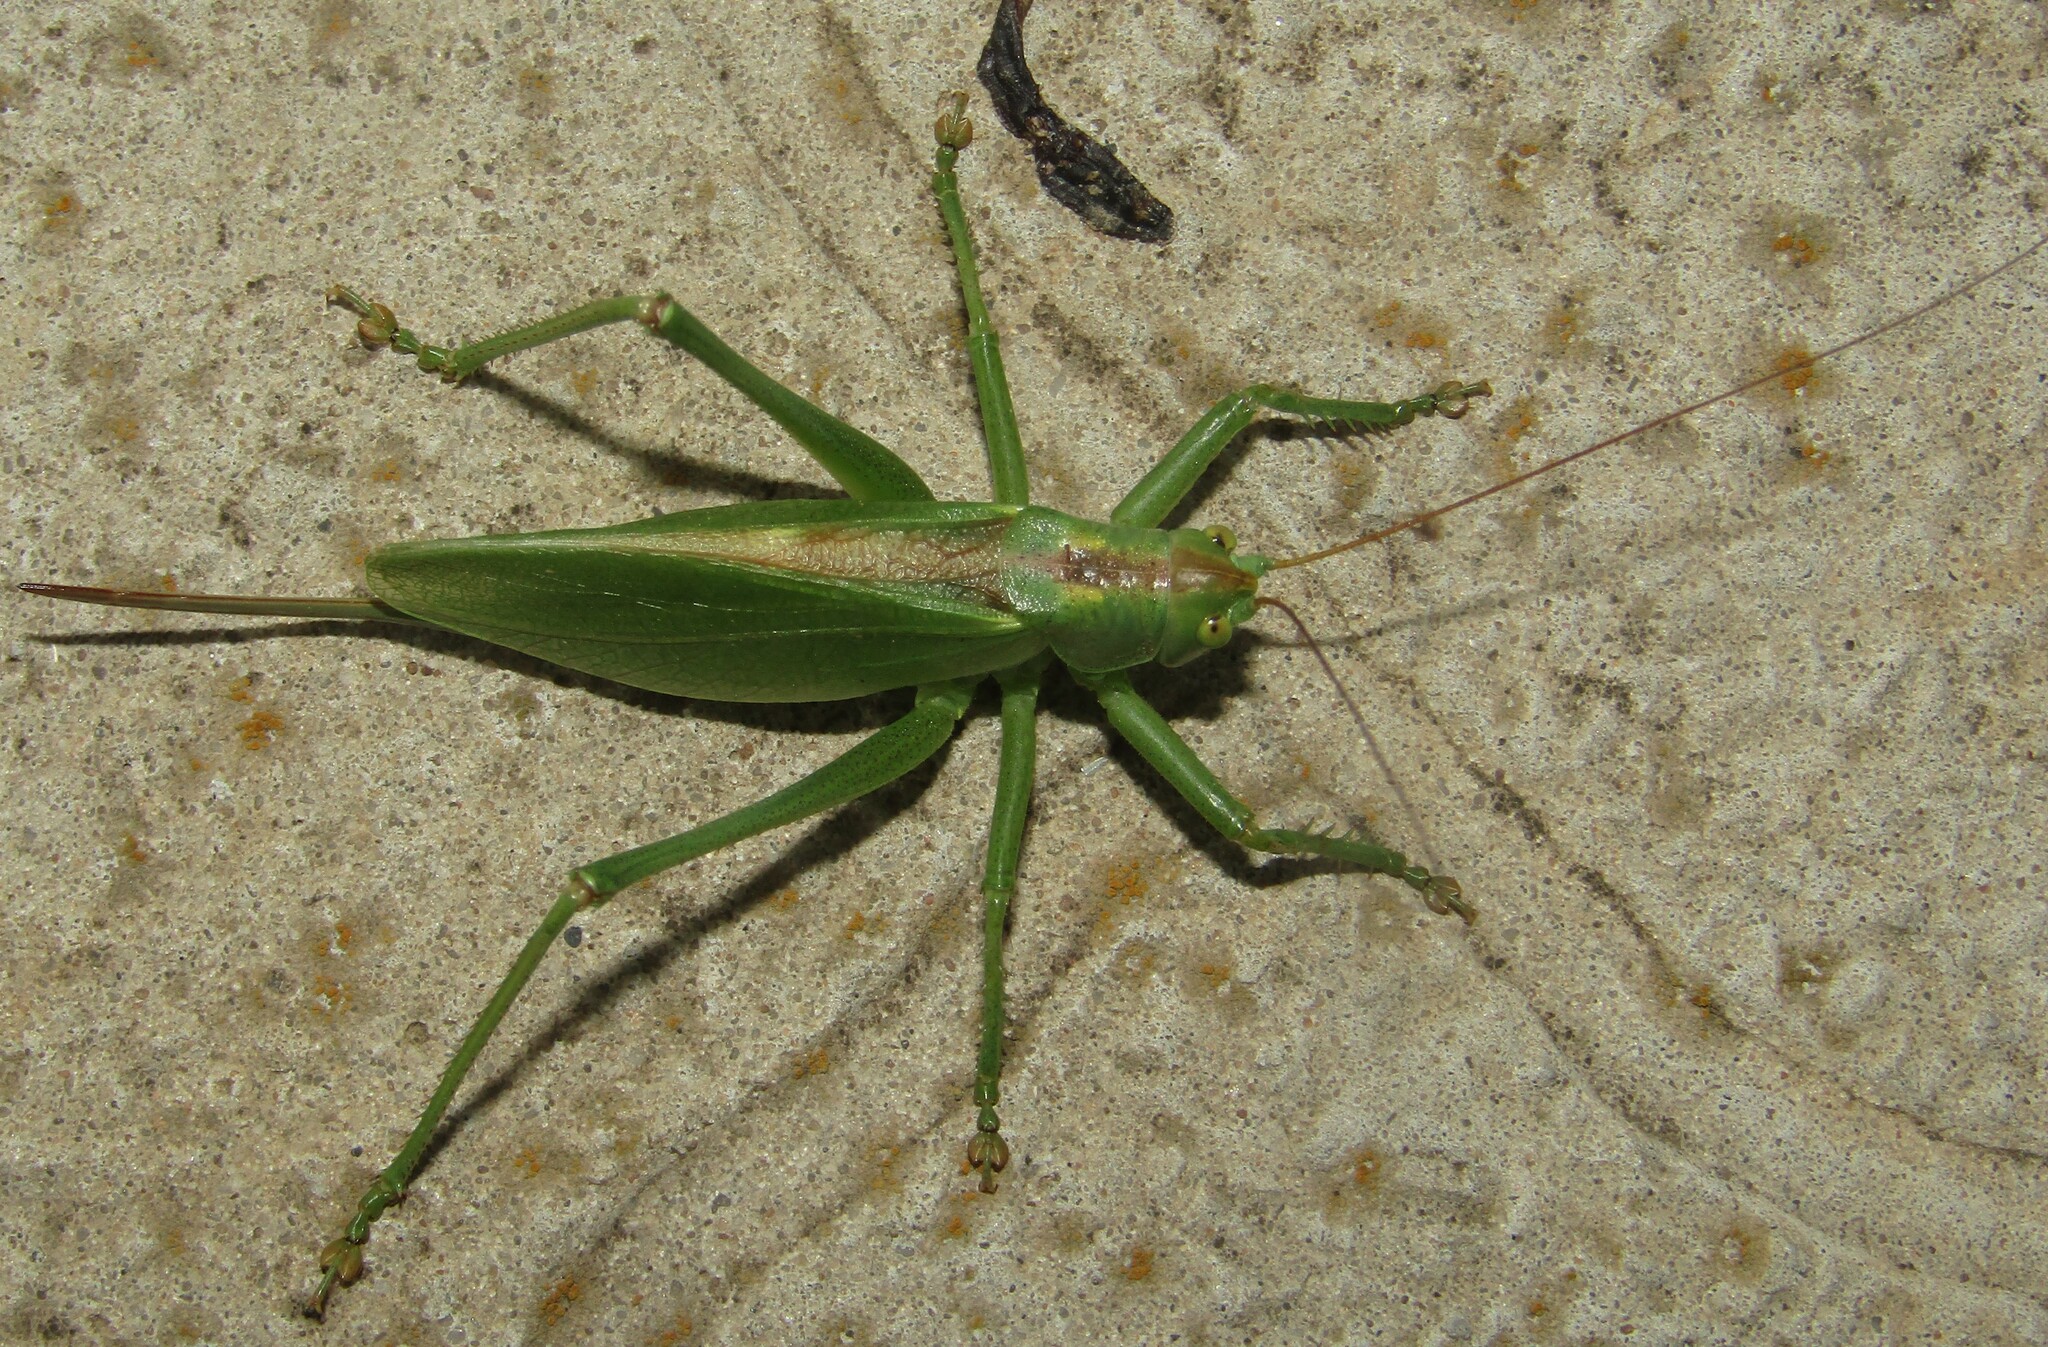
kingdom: Animalia
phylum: Arthropoda
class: Insecta
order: Orthoptera
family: Tettigoniidae
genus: Tettigonia
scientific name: Tettigonia cantans
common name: Upland green bush-cricket
